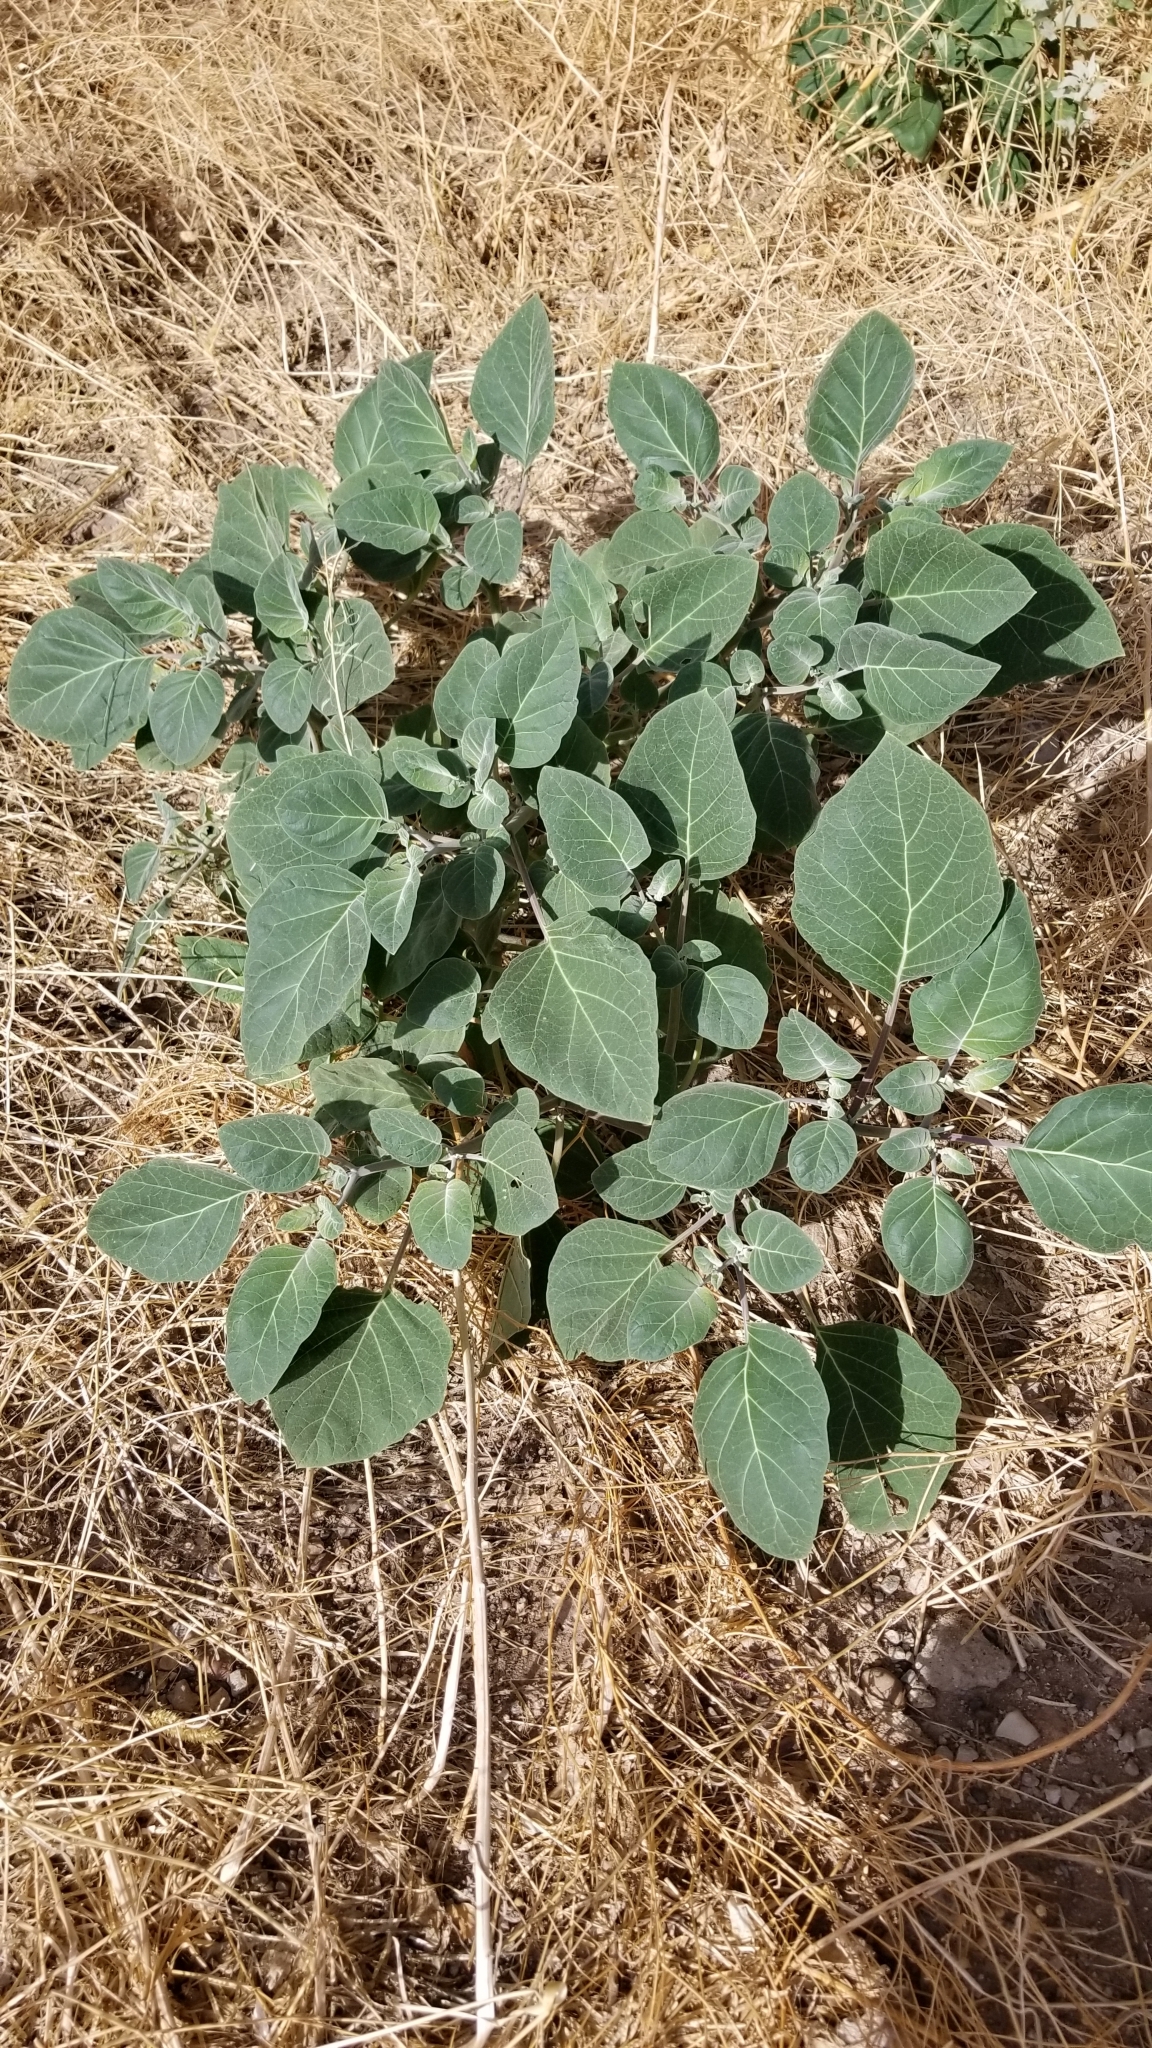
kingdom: Plantae
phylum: Tracheophyta
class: Magnoliopsida
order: Solanales
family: Solanaceae
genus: Datura
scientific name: Datura wrightii
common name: Sacred thorn-apple
